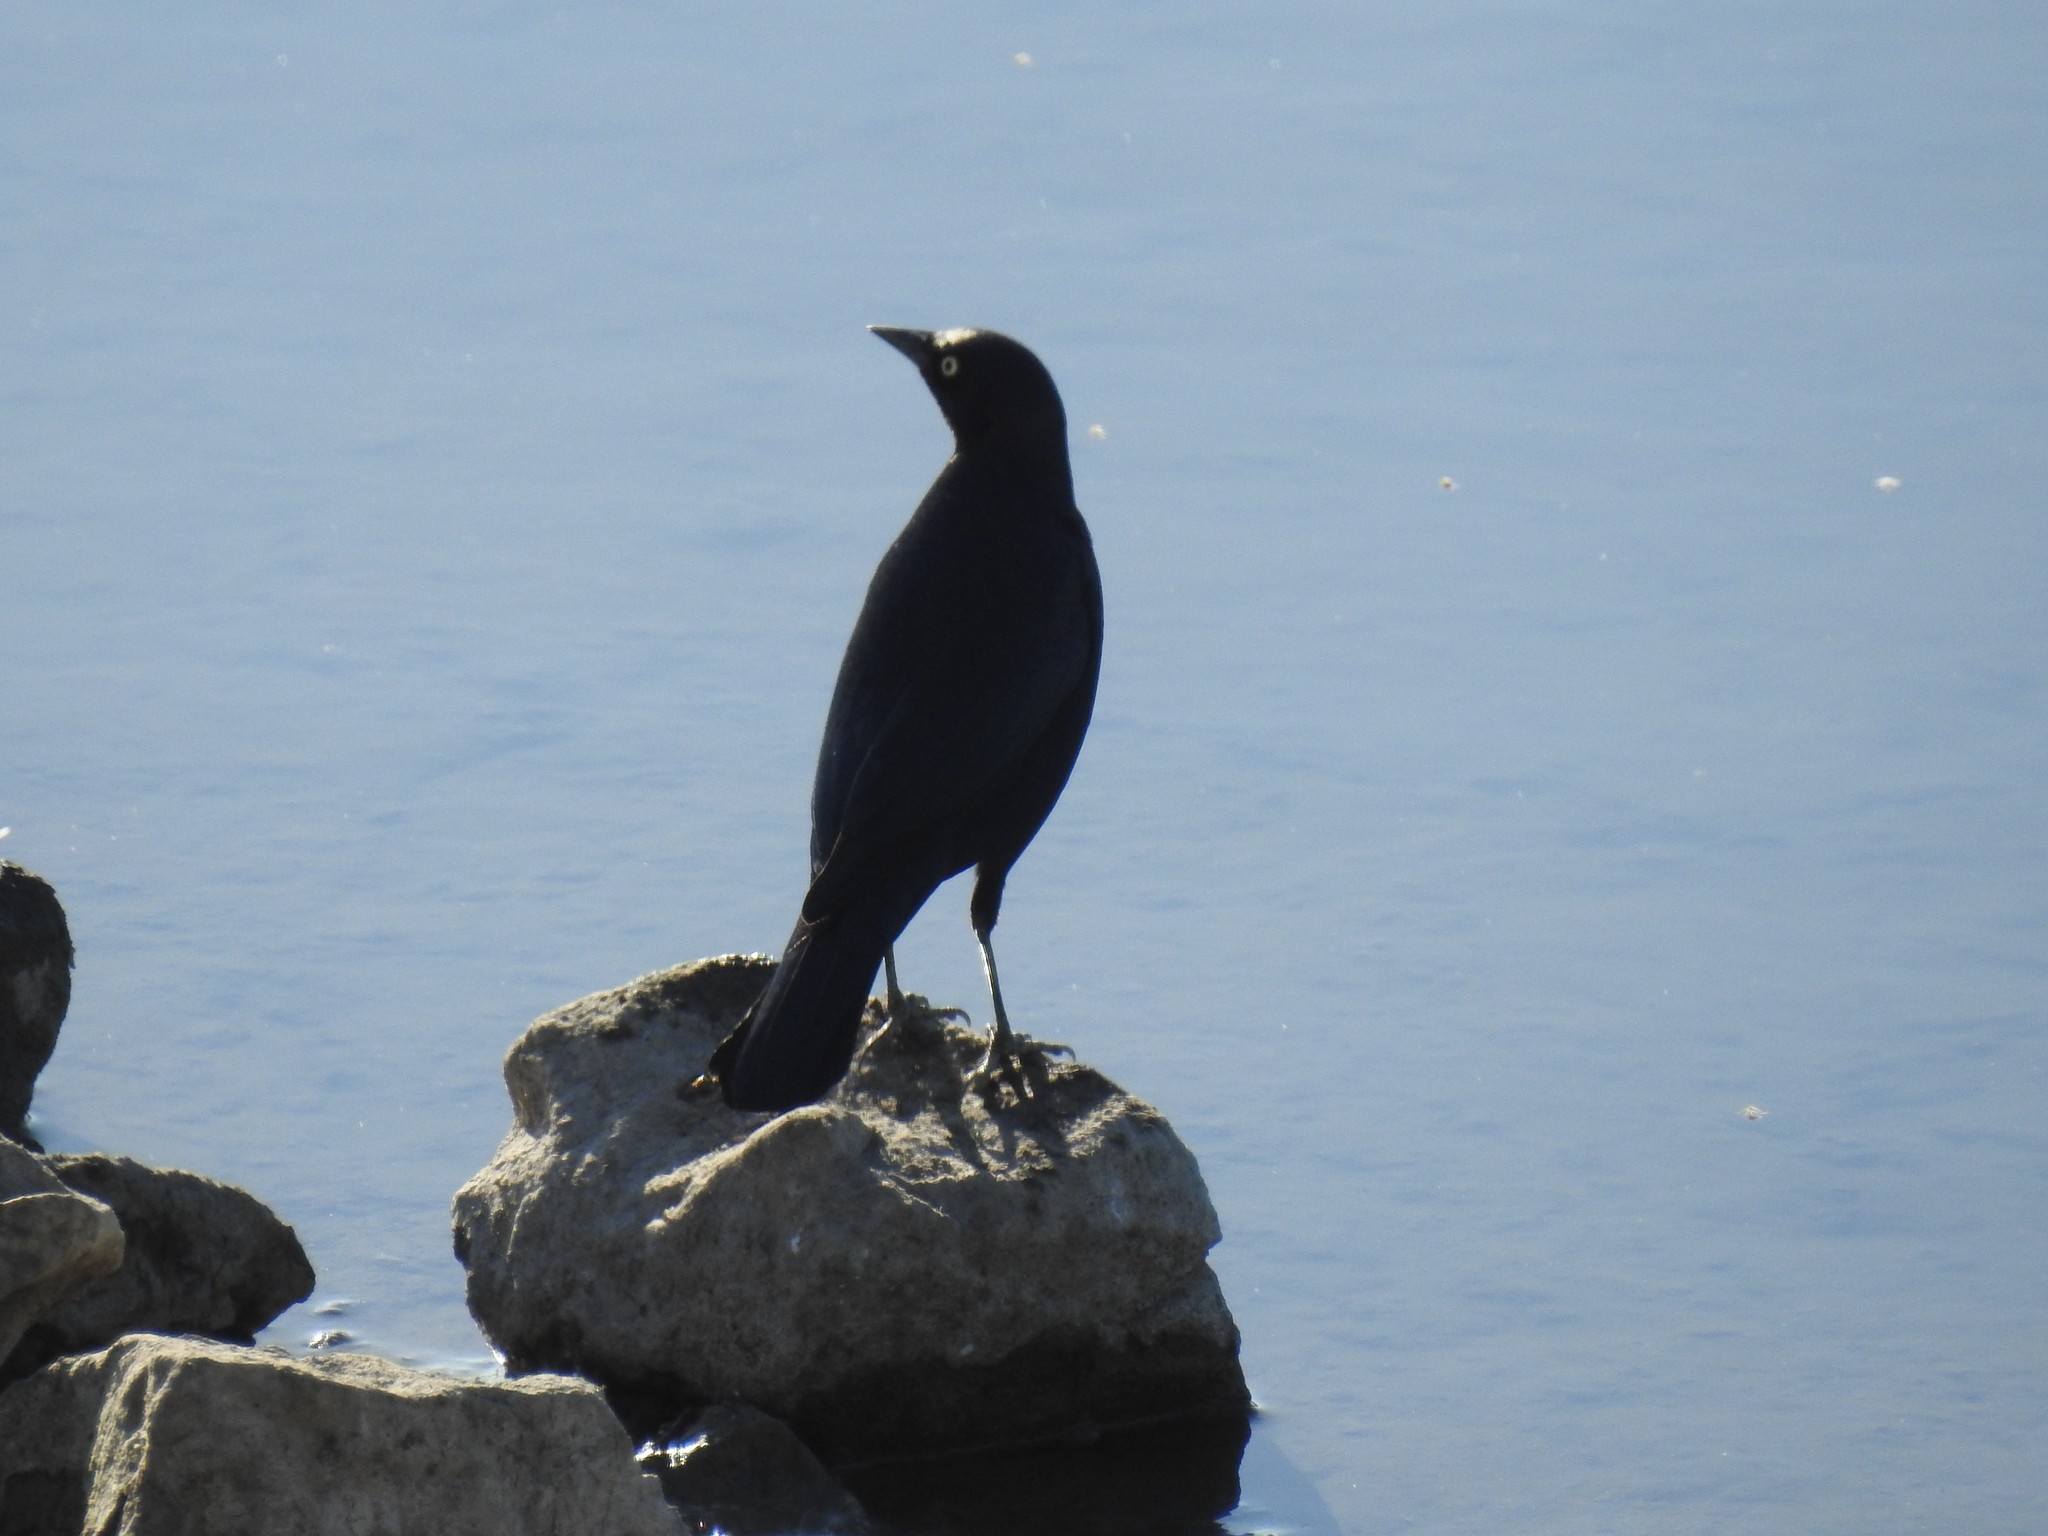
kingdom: Animalia
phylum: Chordata
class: Aves
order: Passeriformes
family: Icteridae
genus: Euphagus
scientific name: Euphagus cyanocephalus
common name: Brewer's blackbird
